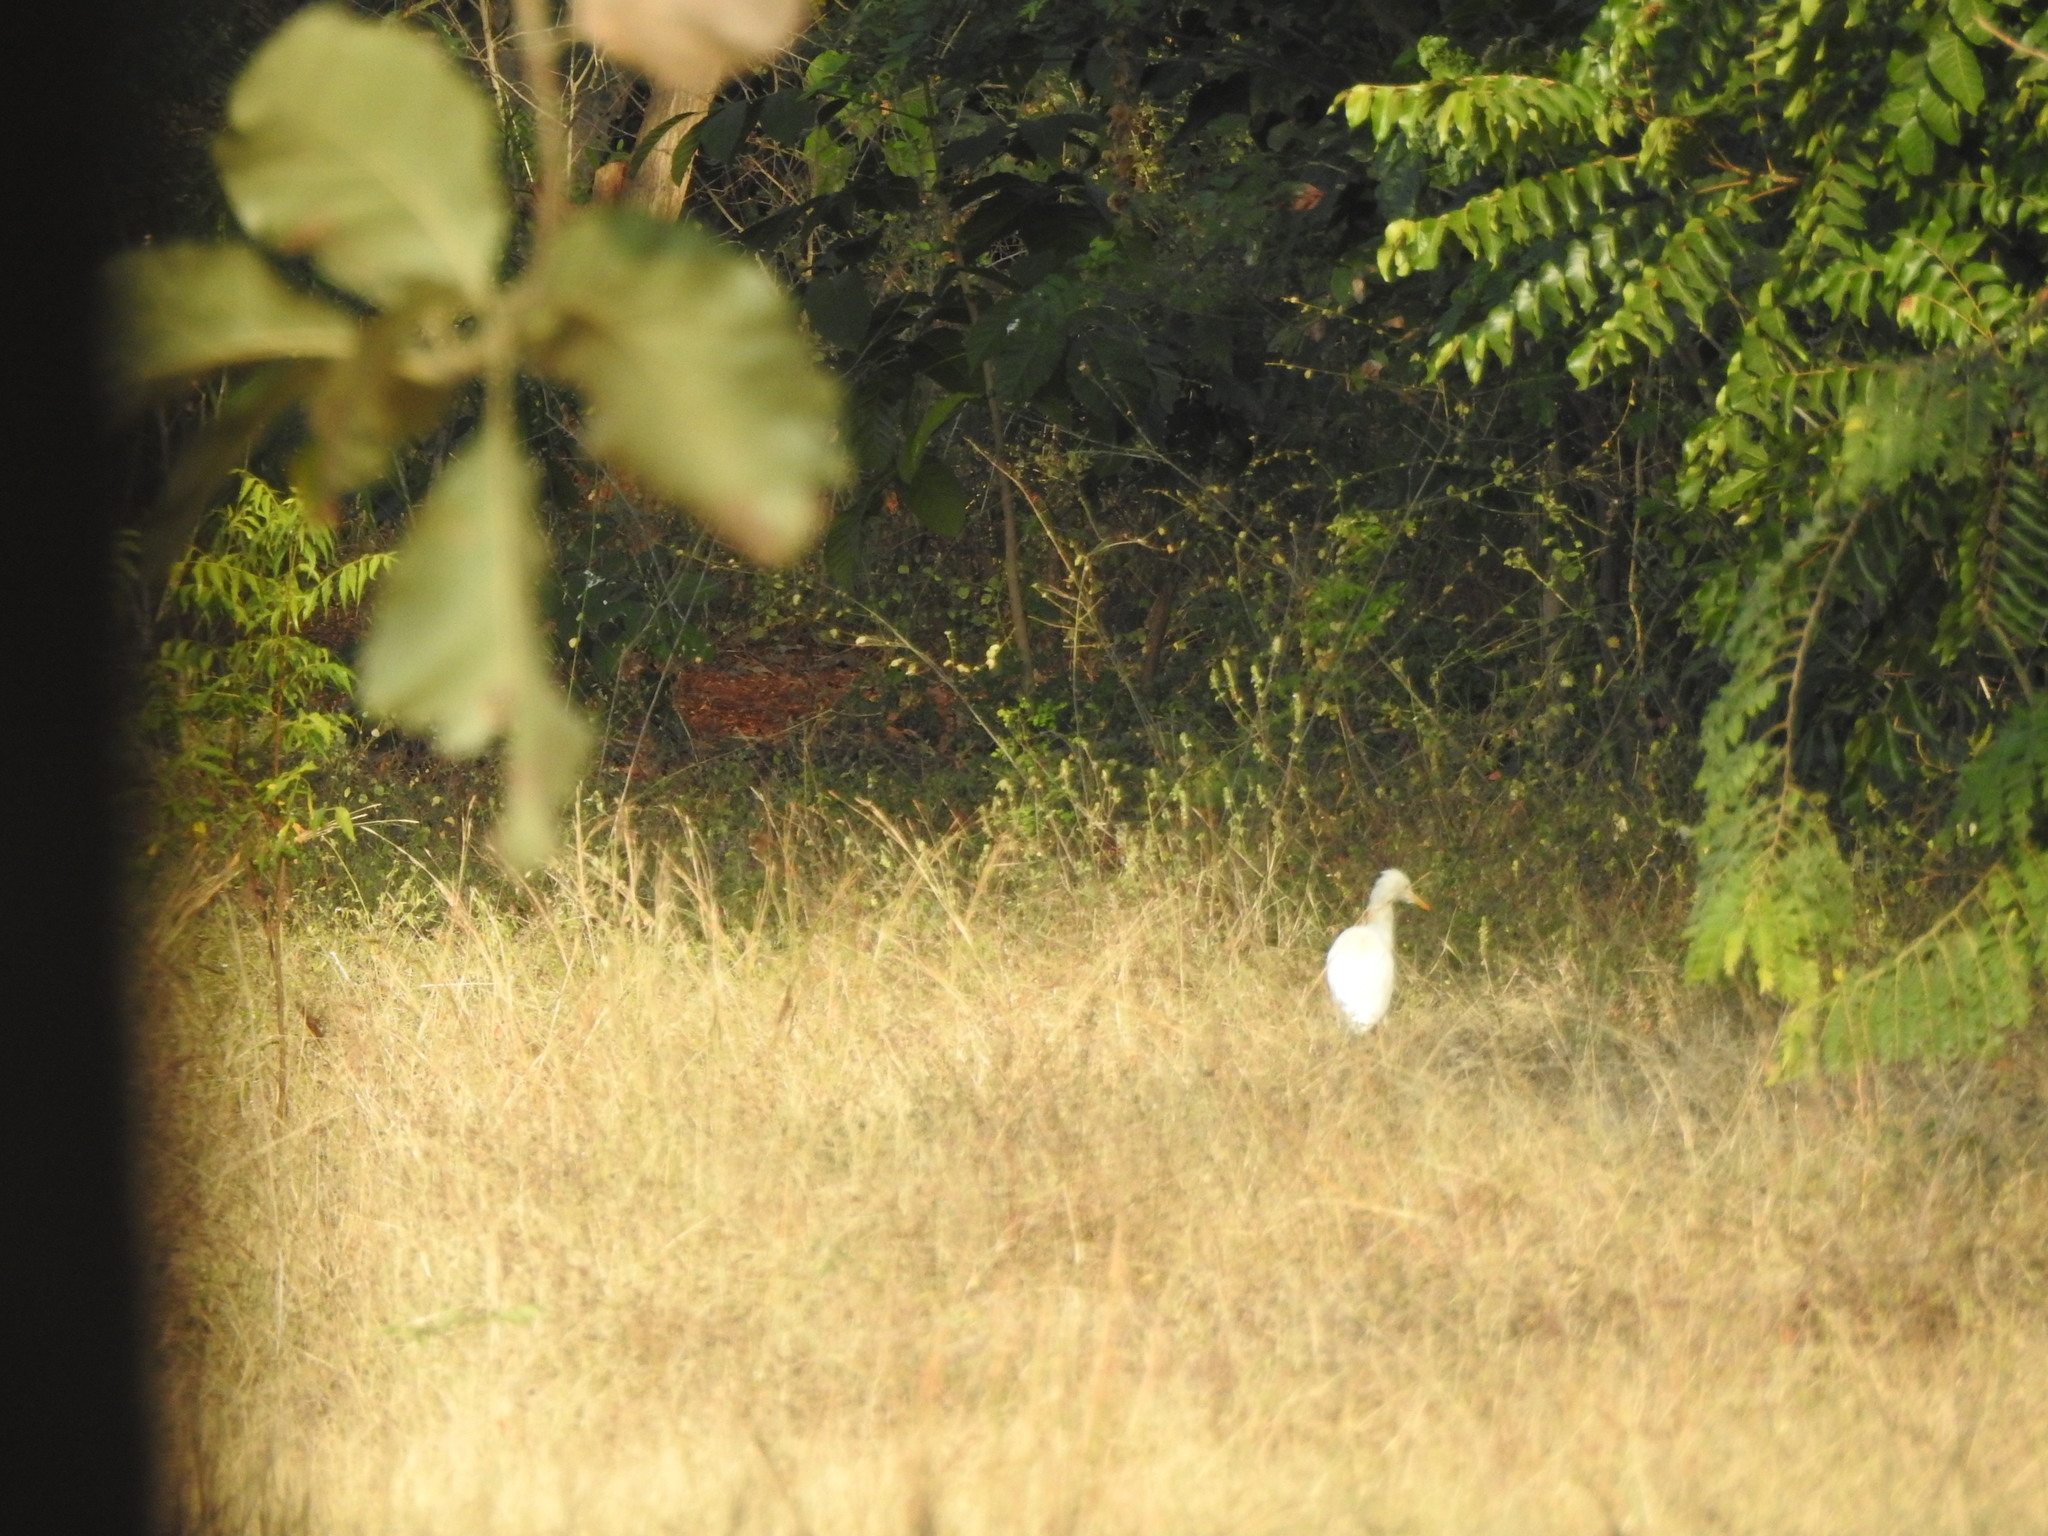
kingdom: Animalia
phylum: Chordata
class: Aves
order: Pelecaniformes
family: Ardeidae
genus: Bubulcus
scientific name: Bubulcus coromandus
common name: Eastern cattle egret
